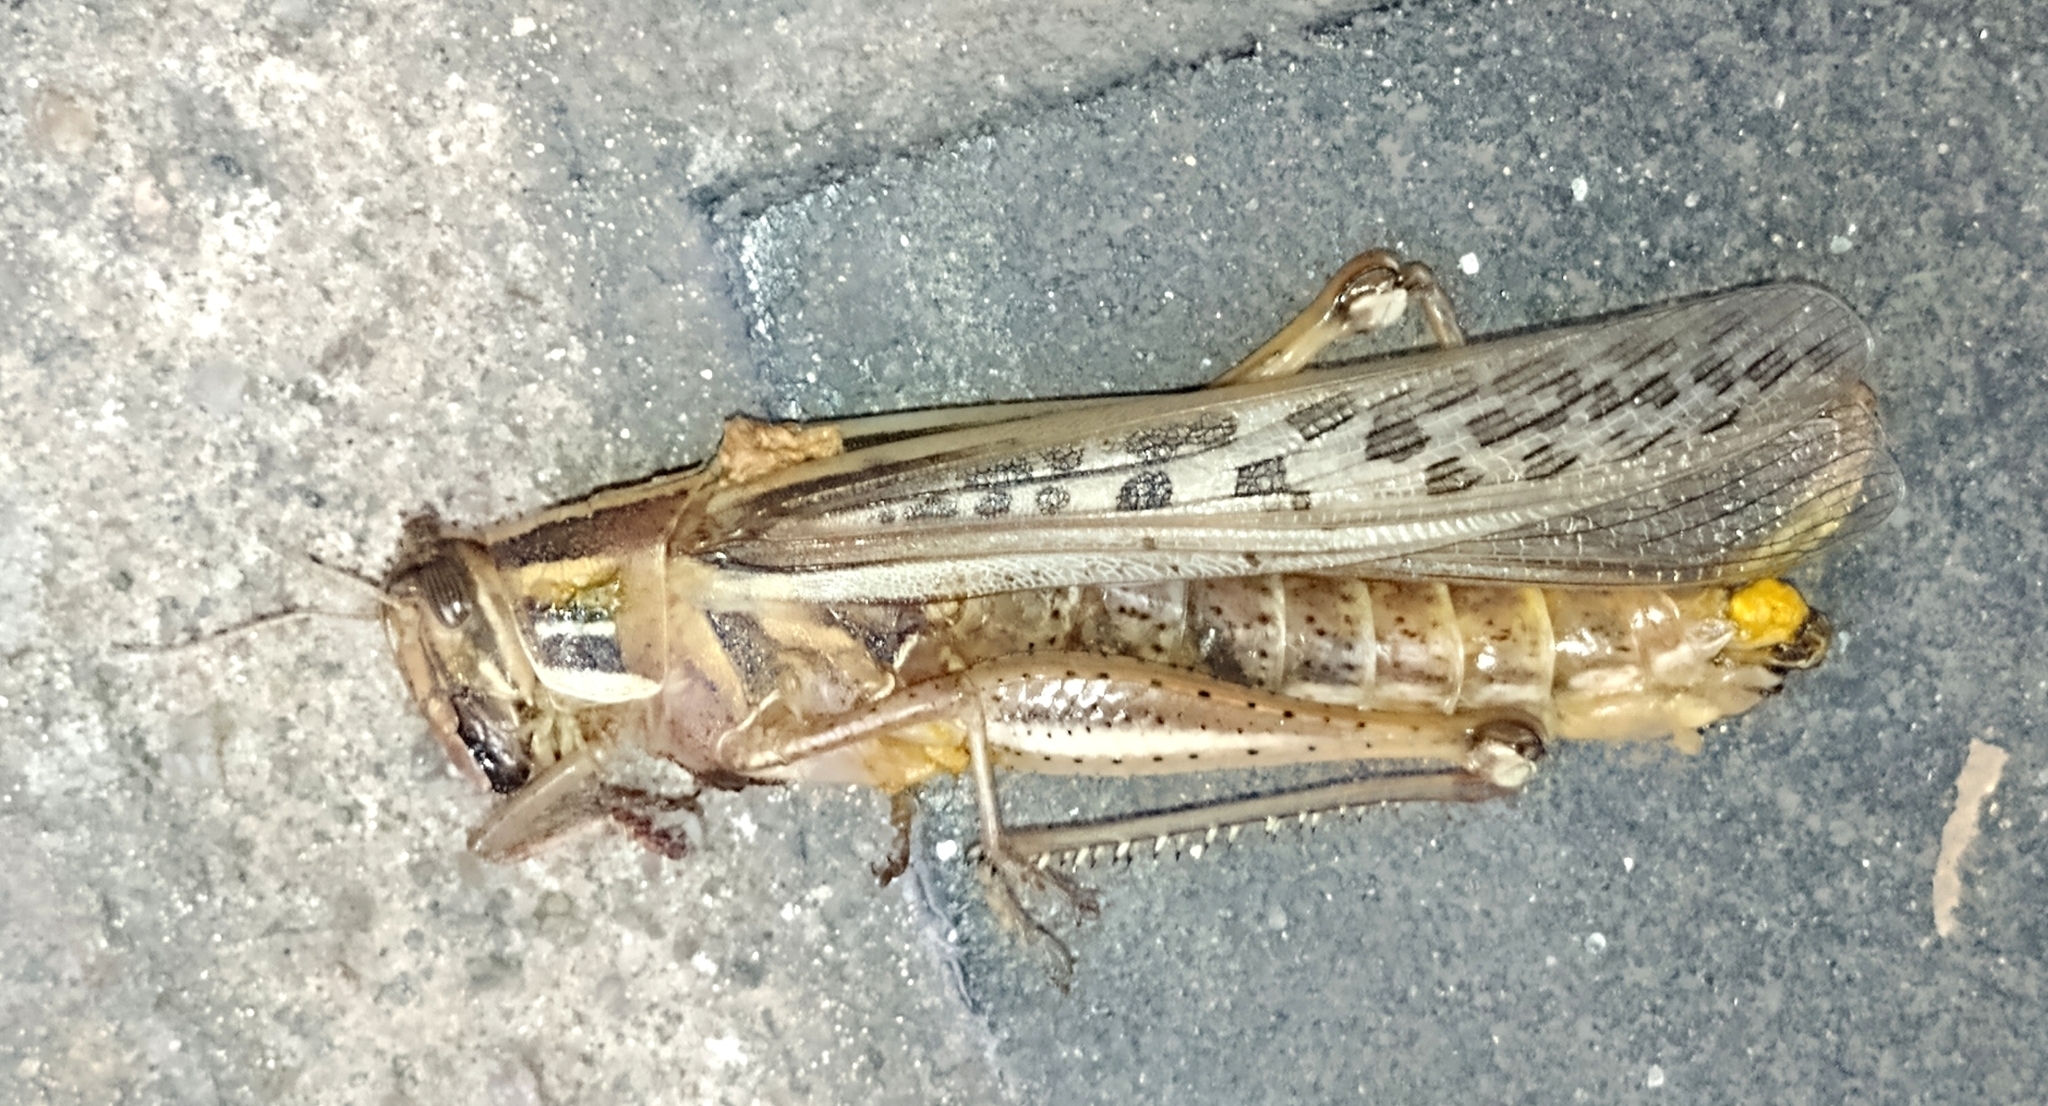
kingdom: Animalia
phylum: Arthropoda
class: Insecta
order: Orthoptera
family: Acrididae
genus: Schistocerca
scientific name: Schistocerca cancellata
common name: South american locust
